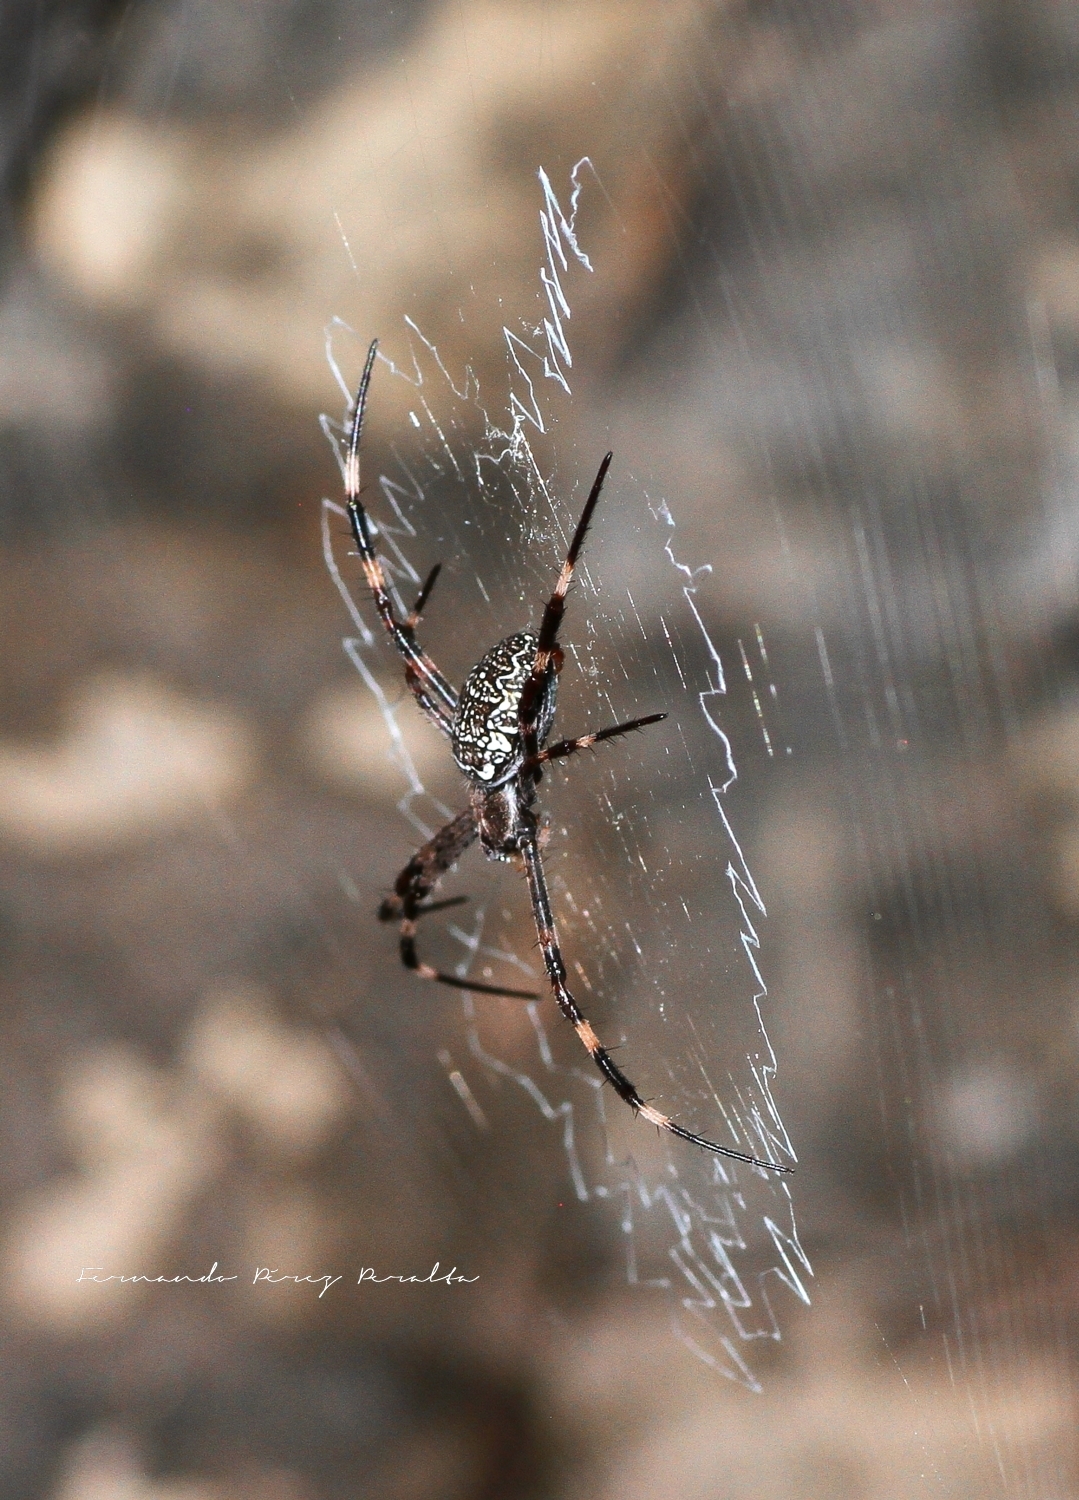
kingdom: Animalia
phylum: Arthropoda
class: Arachnida
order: Araneae
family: Araneidae
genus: Argiope
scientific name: Argiope katherina
